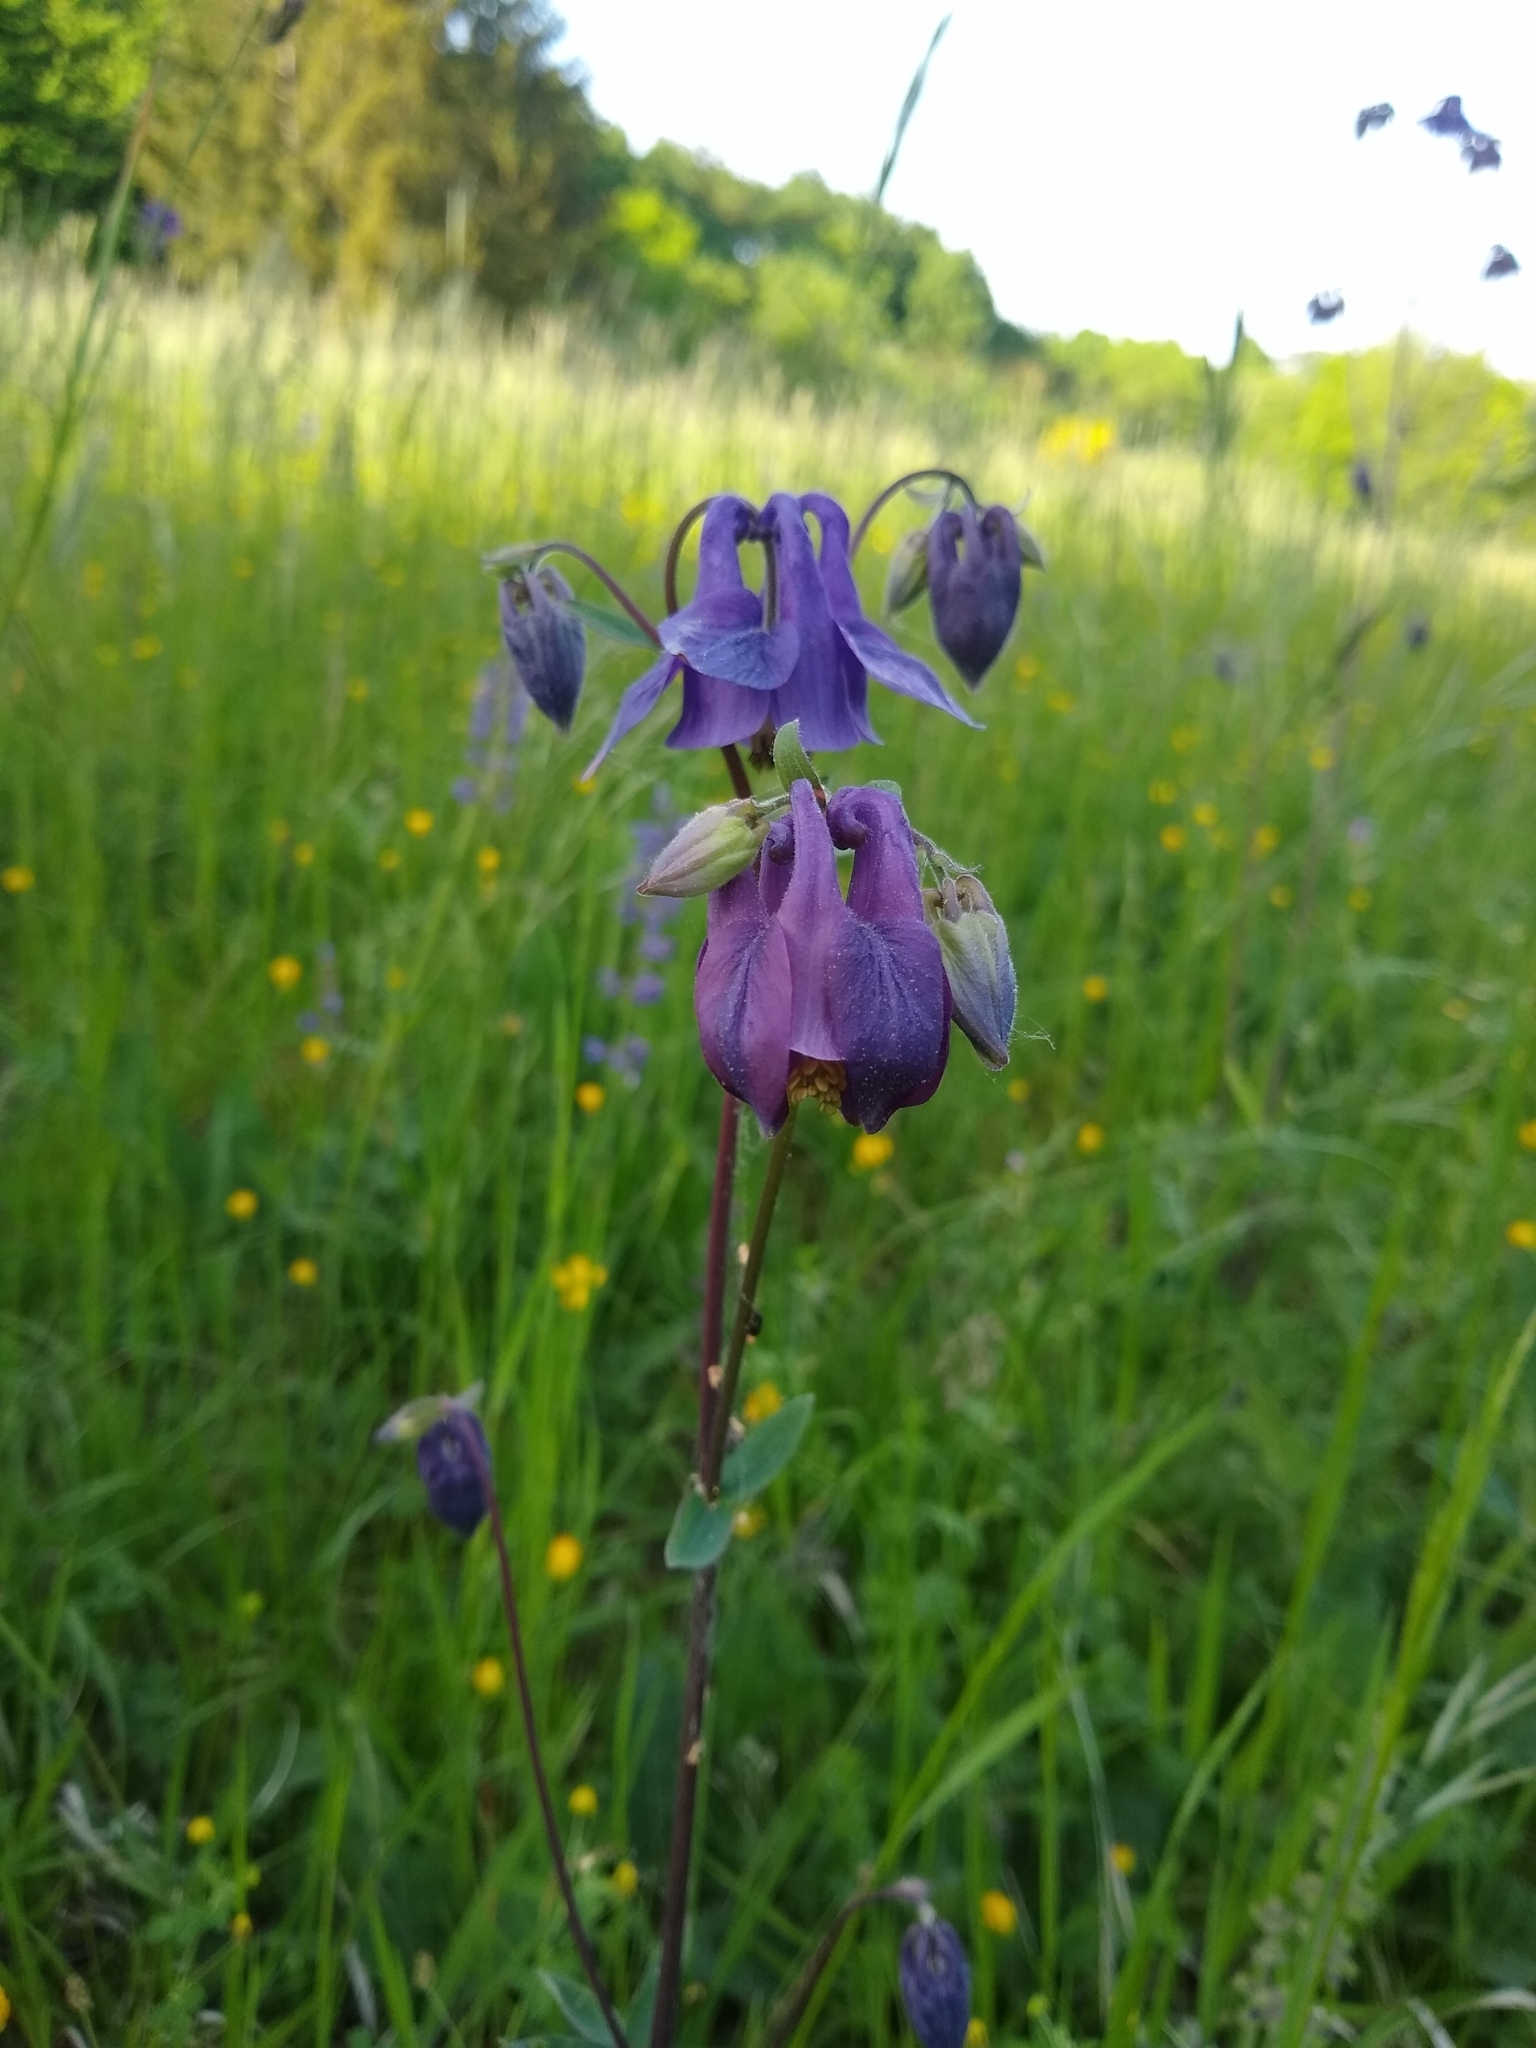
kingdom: Plantae
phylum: Tracheophyta
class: Magnoliopsida
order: Ranunculales
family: Ranunculaceae
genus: Aquilegia
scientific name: Aquilegia vulgaris
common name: Columbine
